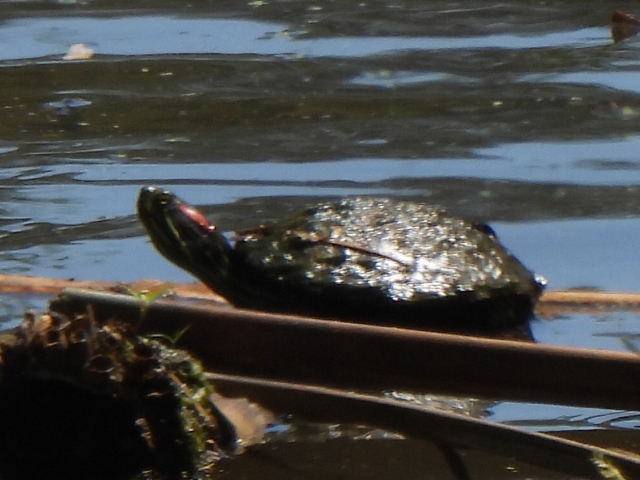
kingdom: Animalia
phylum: Chordata
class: Testudines
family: Emydidae
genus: Trachemys
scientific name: Trachemys scripta
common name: Slider
